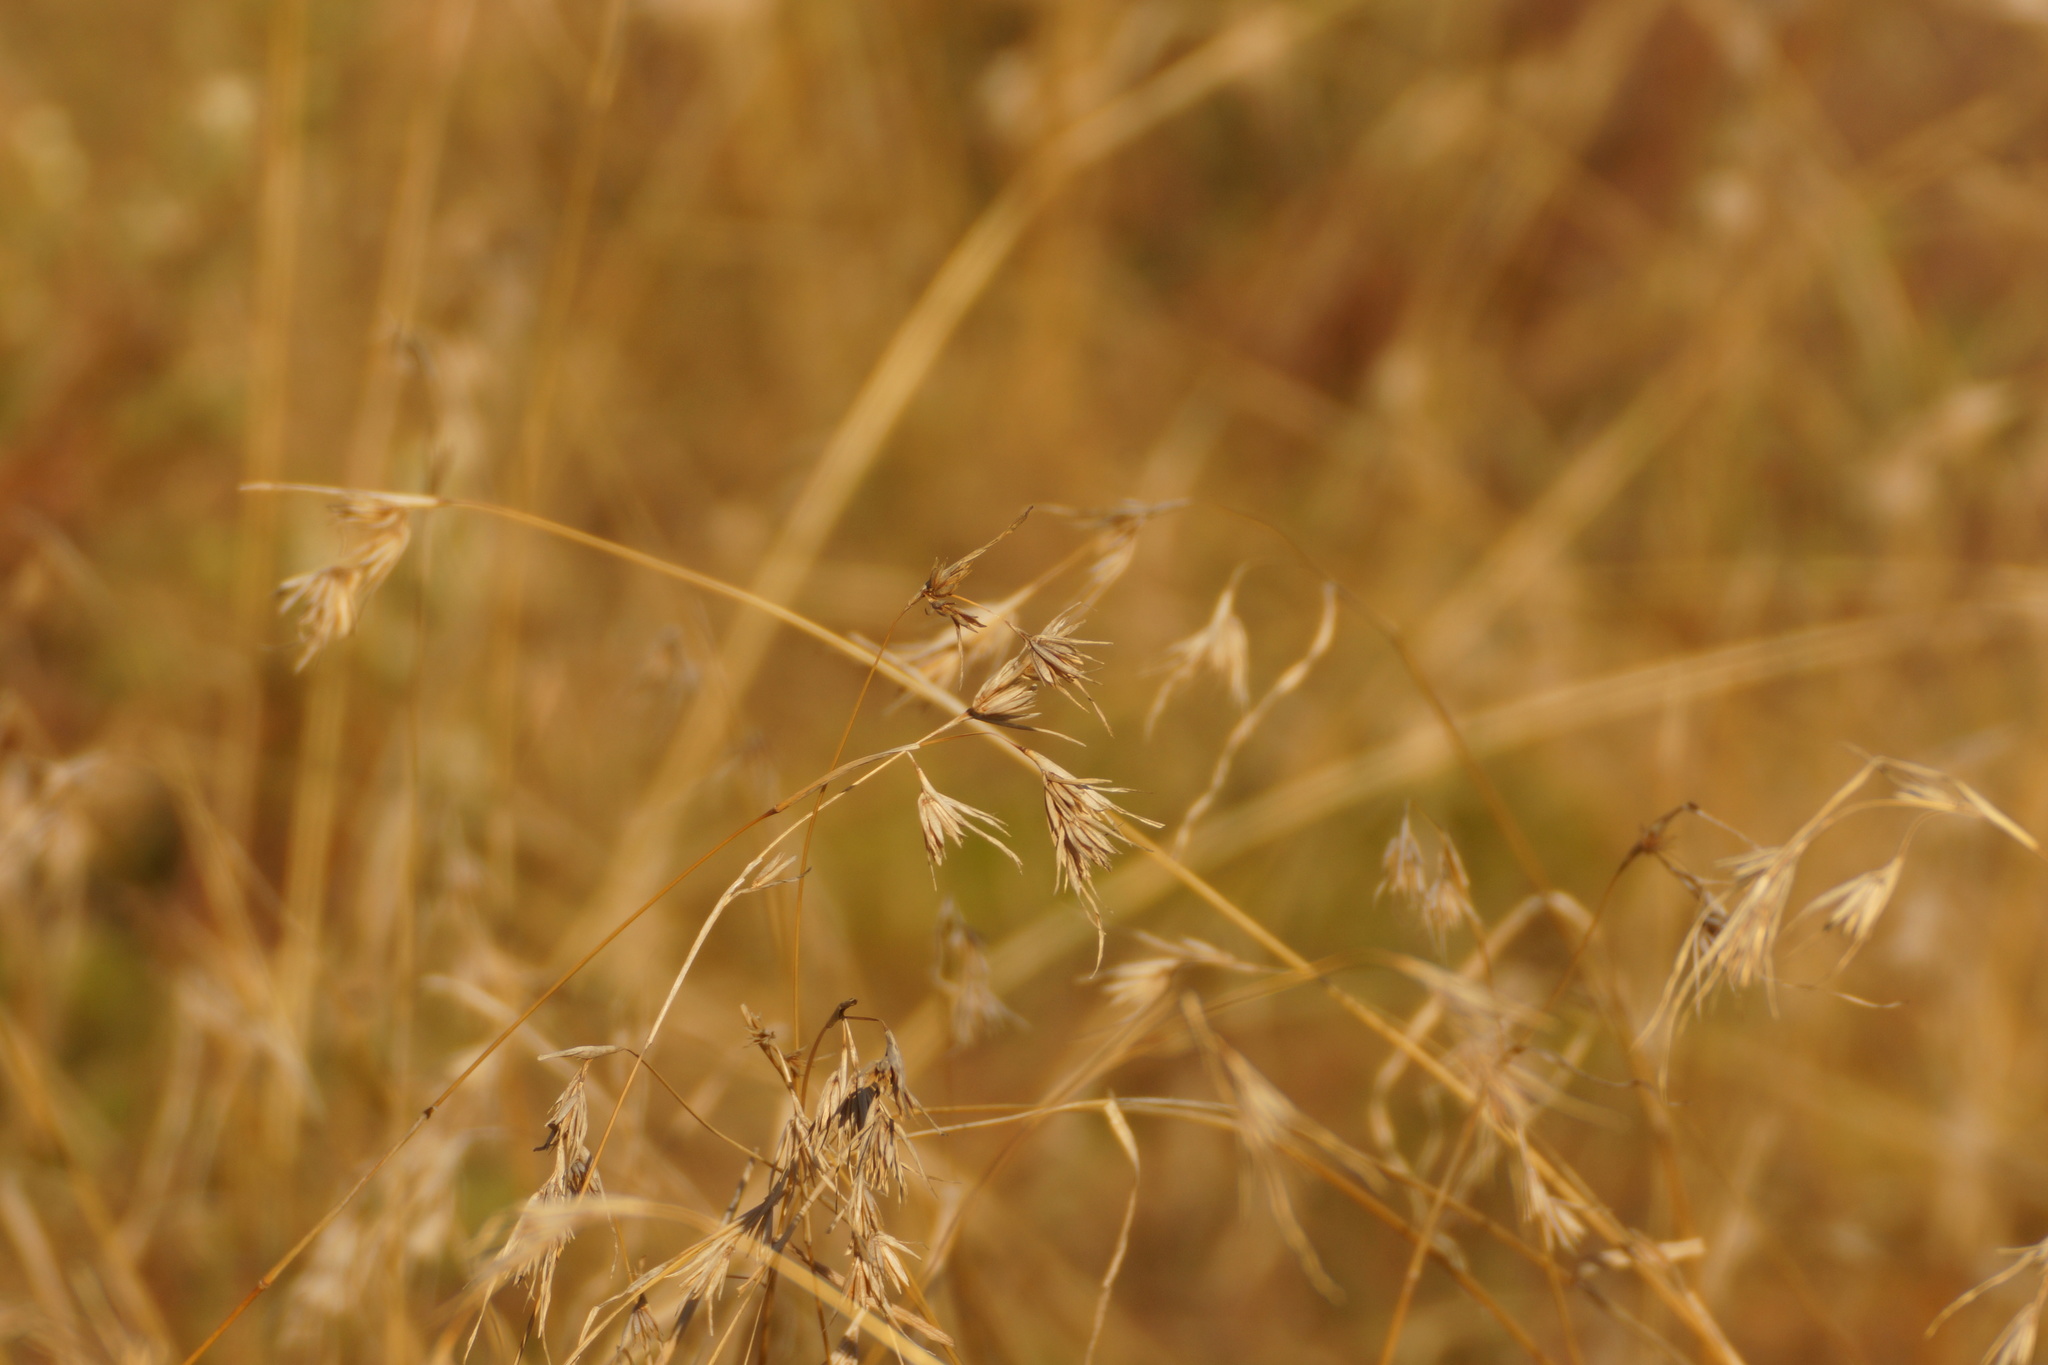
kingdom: Plantae
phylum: Tracheophyta
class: Liliopsida
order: Poales
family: Poaceae
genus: Themeda
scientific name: Themeda triandra
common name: Kangaroo grass
